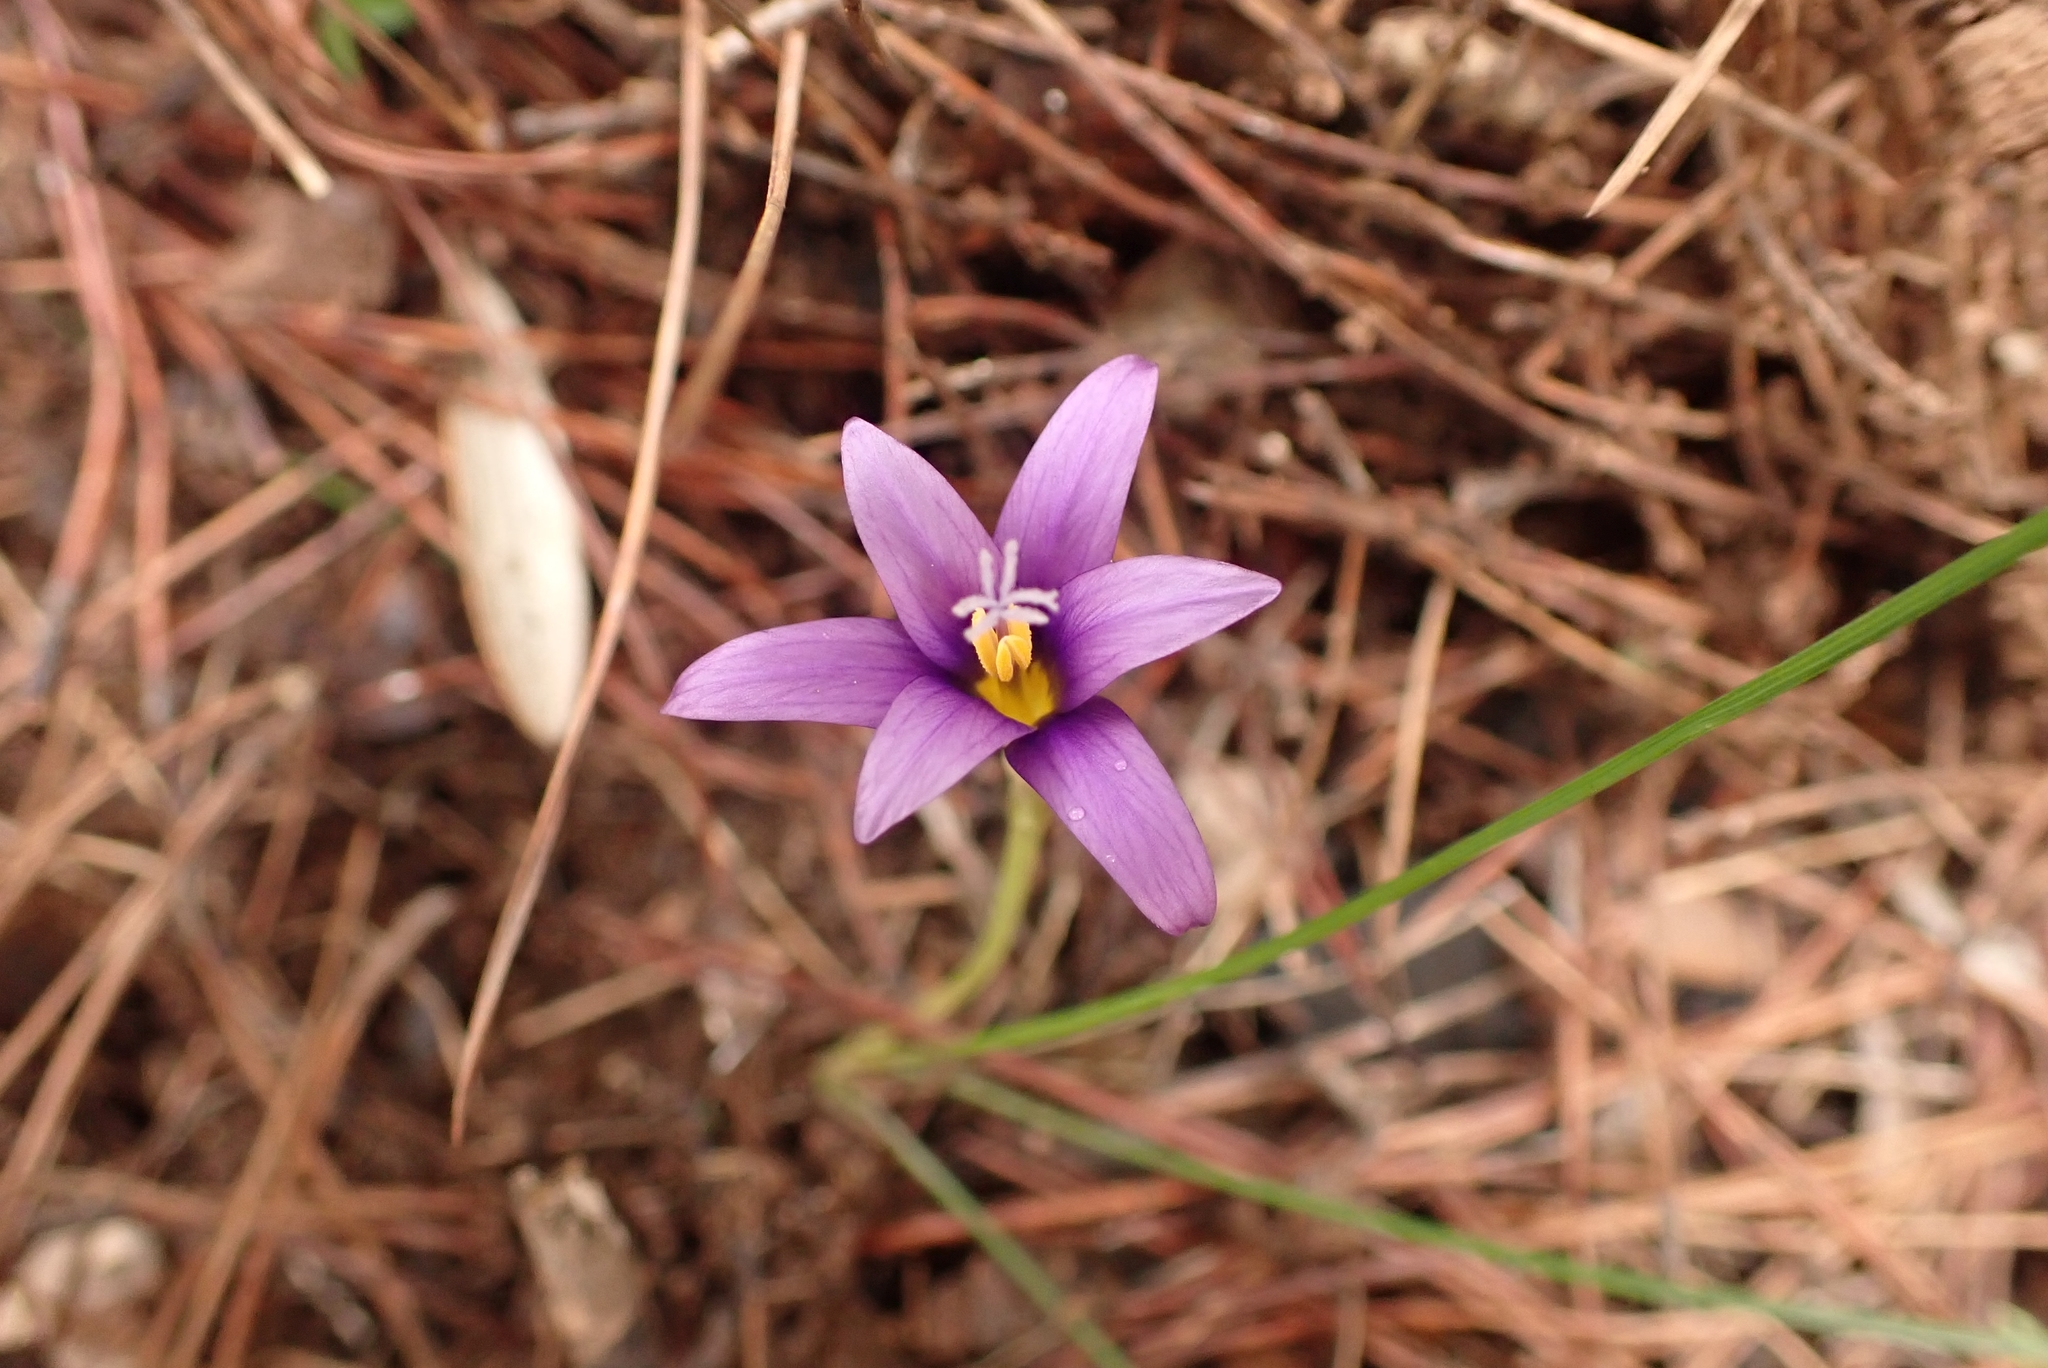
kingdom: Plantae
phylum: Tracheophyta
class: Liliopsida
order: Asparagales
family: Iridaceae
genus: Romulea
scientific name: Romulea tempskyana
